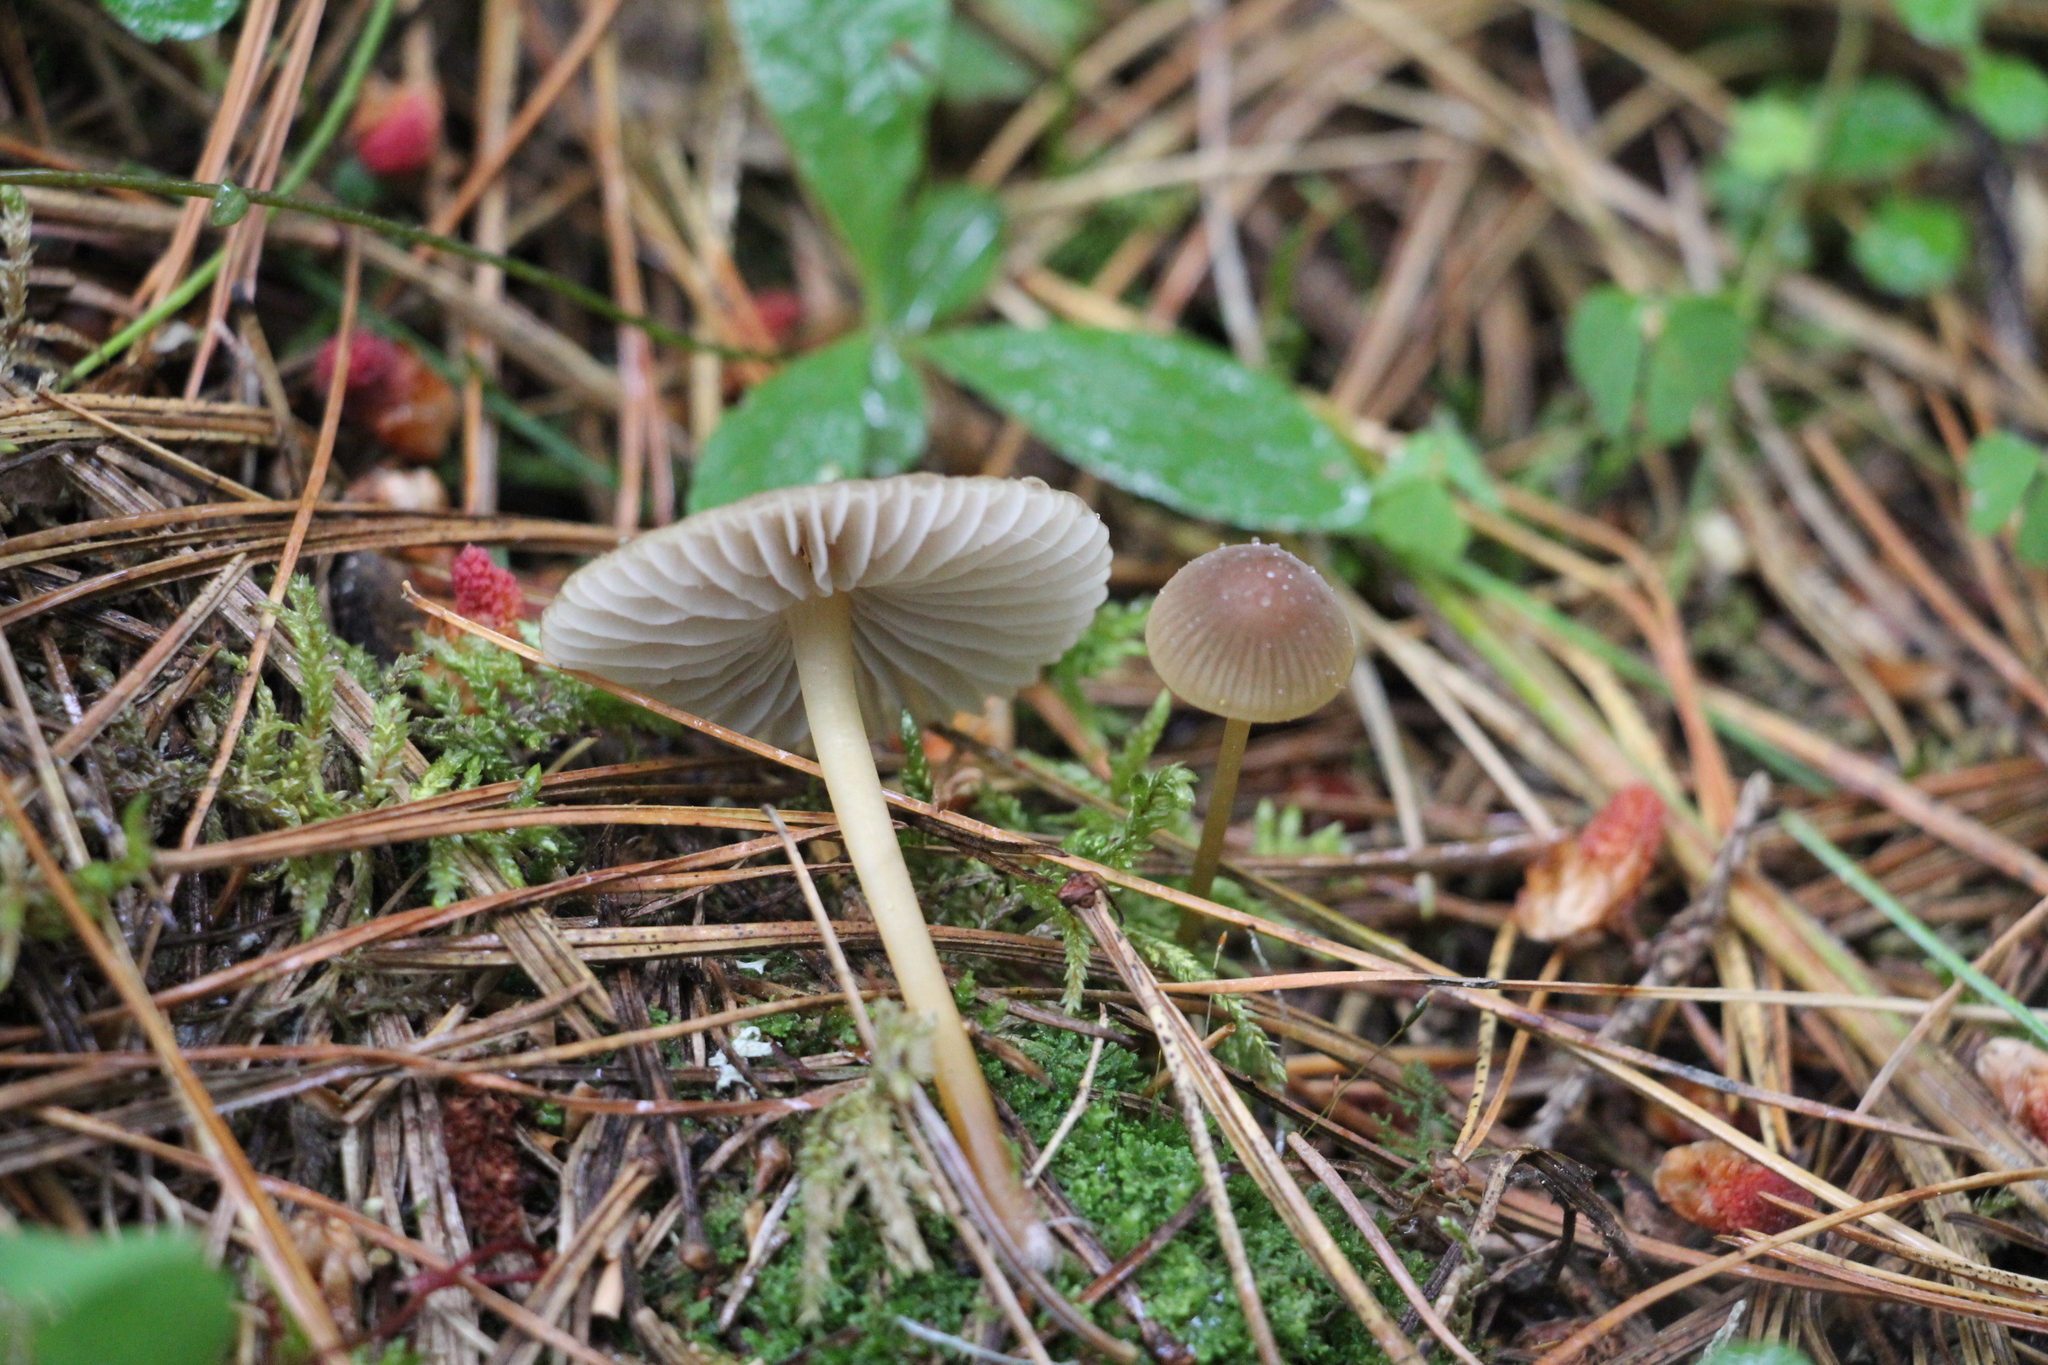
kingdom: Fungi
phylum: Basidiomycota
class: Agaricomycetes
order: Agaricales
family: Mycenaceae
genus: Mycena
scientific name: Mycena viridimarginata
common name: Olive edge bonnet
